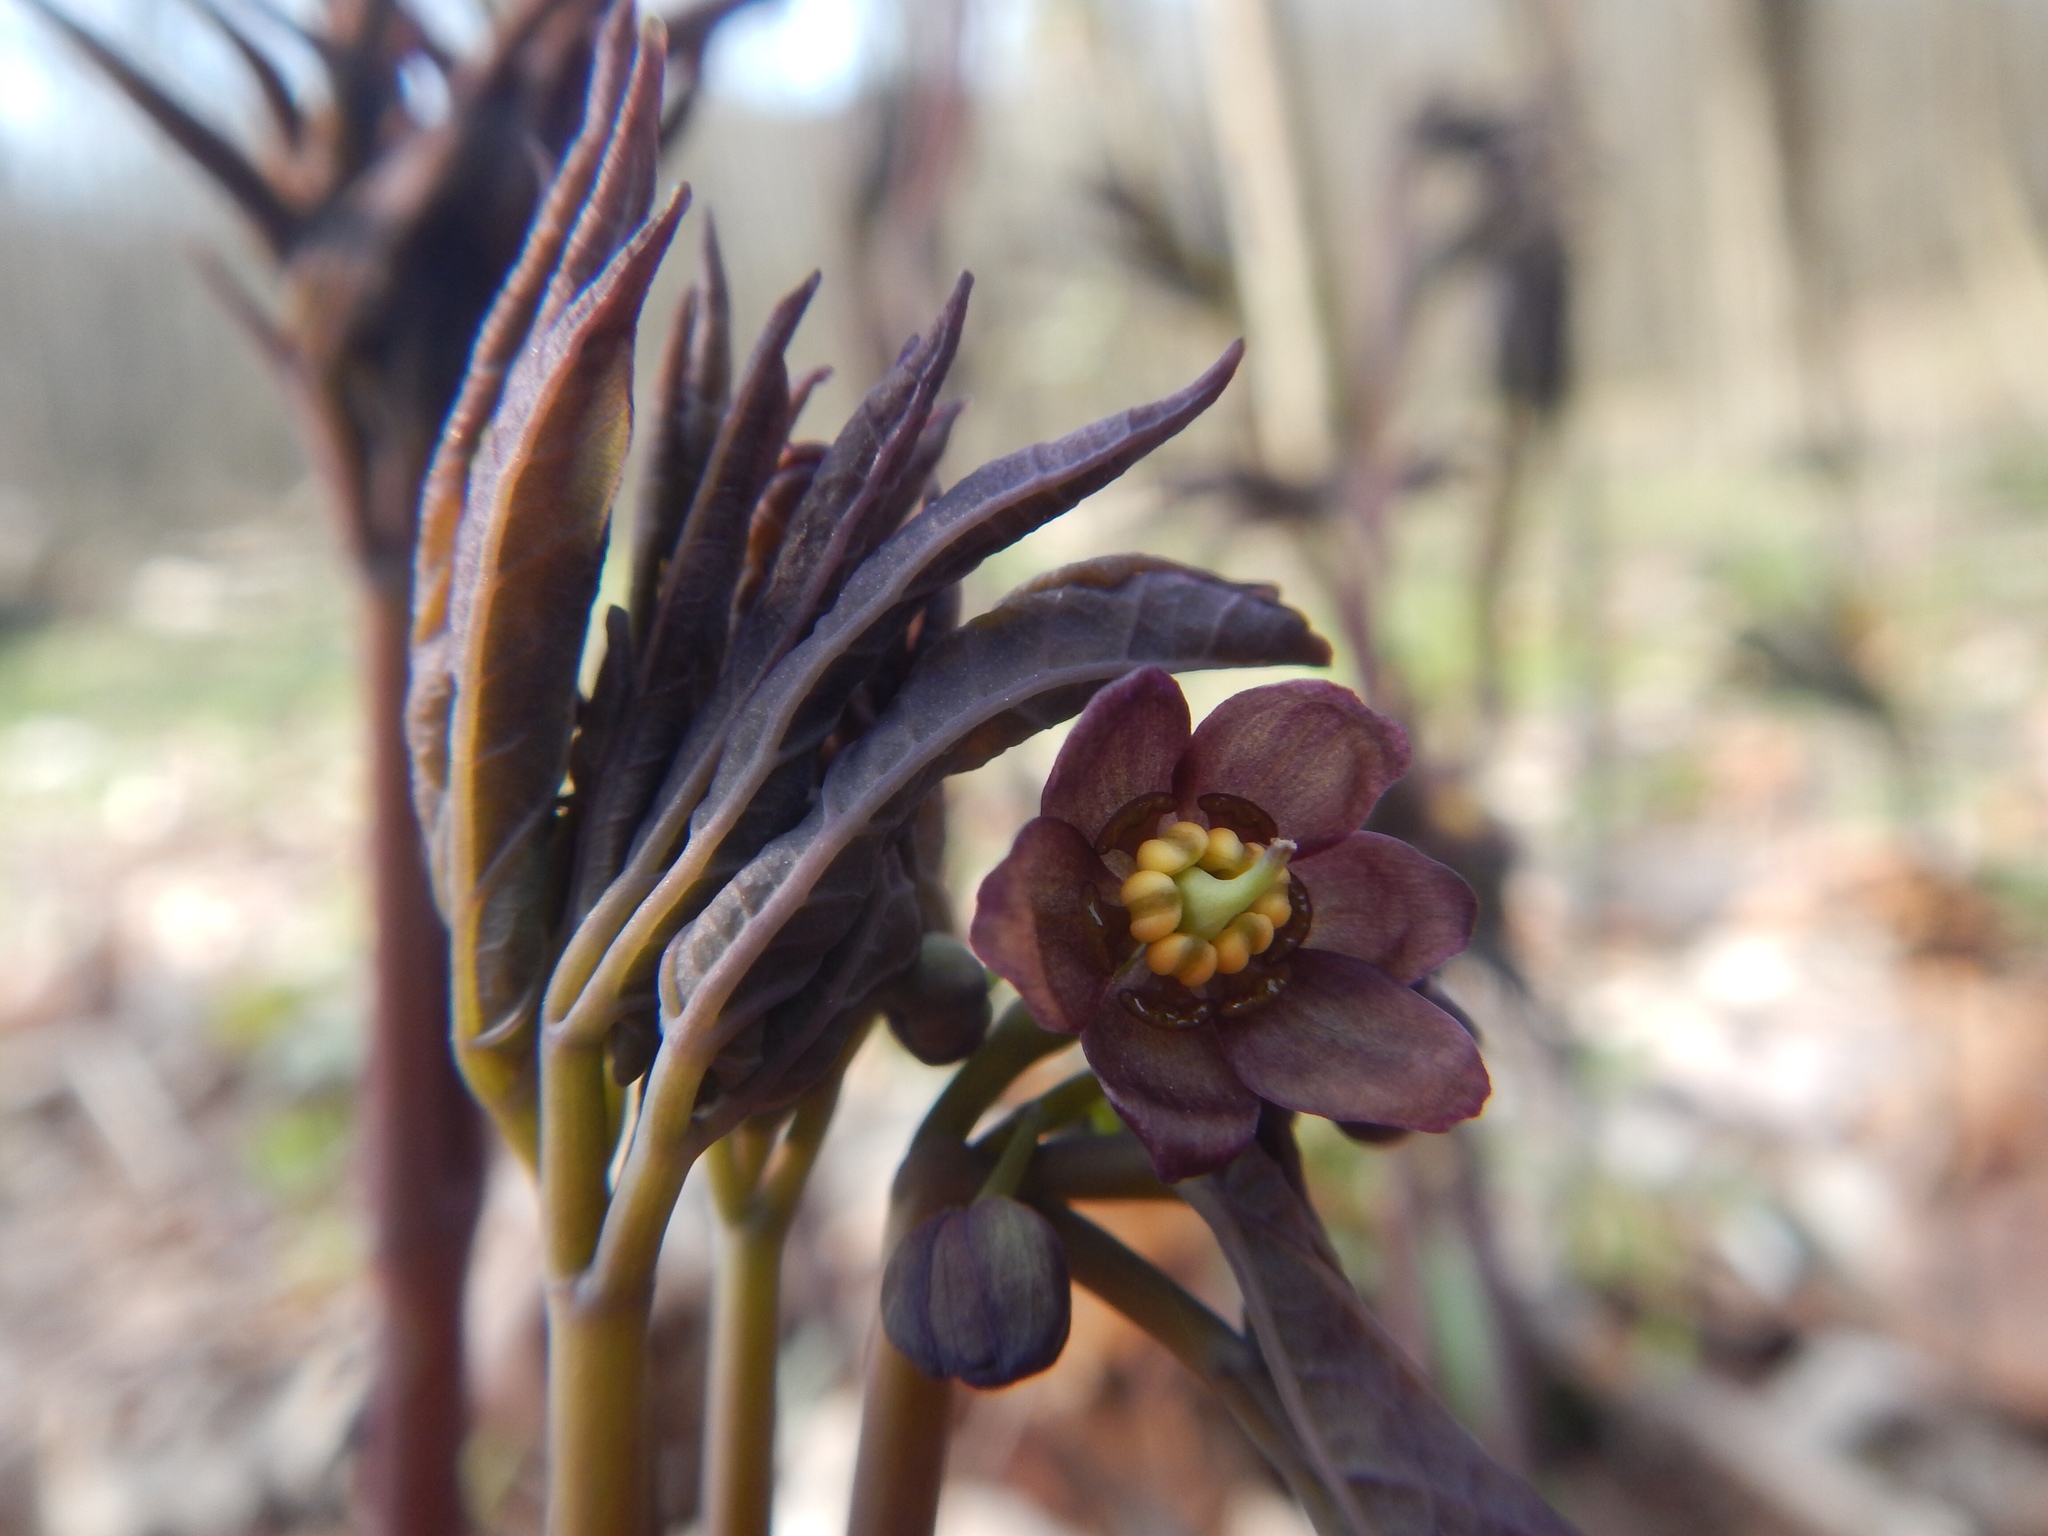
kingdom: Plantae
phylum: Tracheophyta
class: Magnoliopsida
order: Ranunculales
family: Berberidaceae
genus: Caulophyllum
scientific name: Caulophyllum giganteum
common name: Blue cohosh
